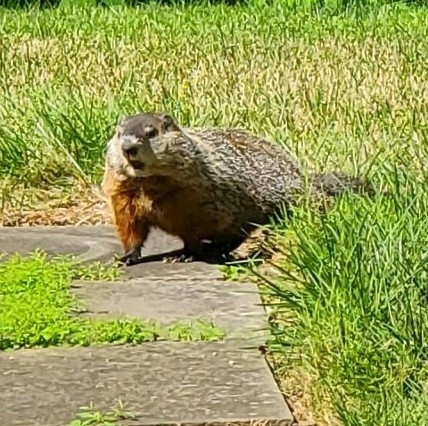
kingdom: Animalia
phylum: Chordata
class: Mammalia
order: Rodentia
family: Sciuridae
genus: Marmota
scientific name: Marmota monax
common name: Groundhog
